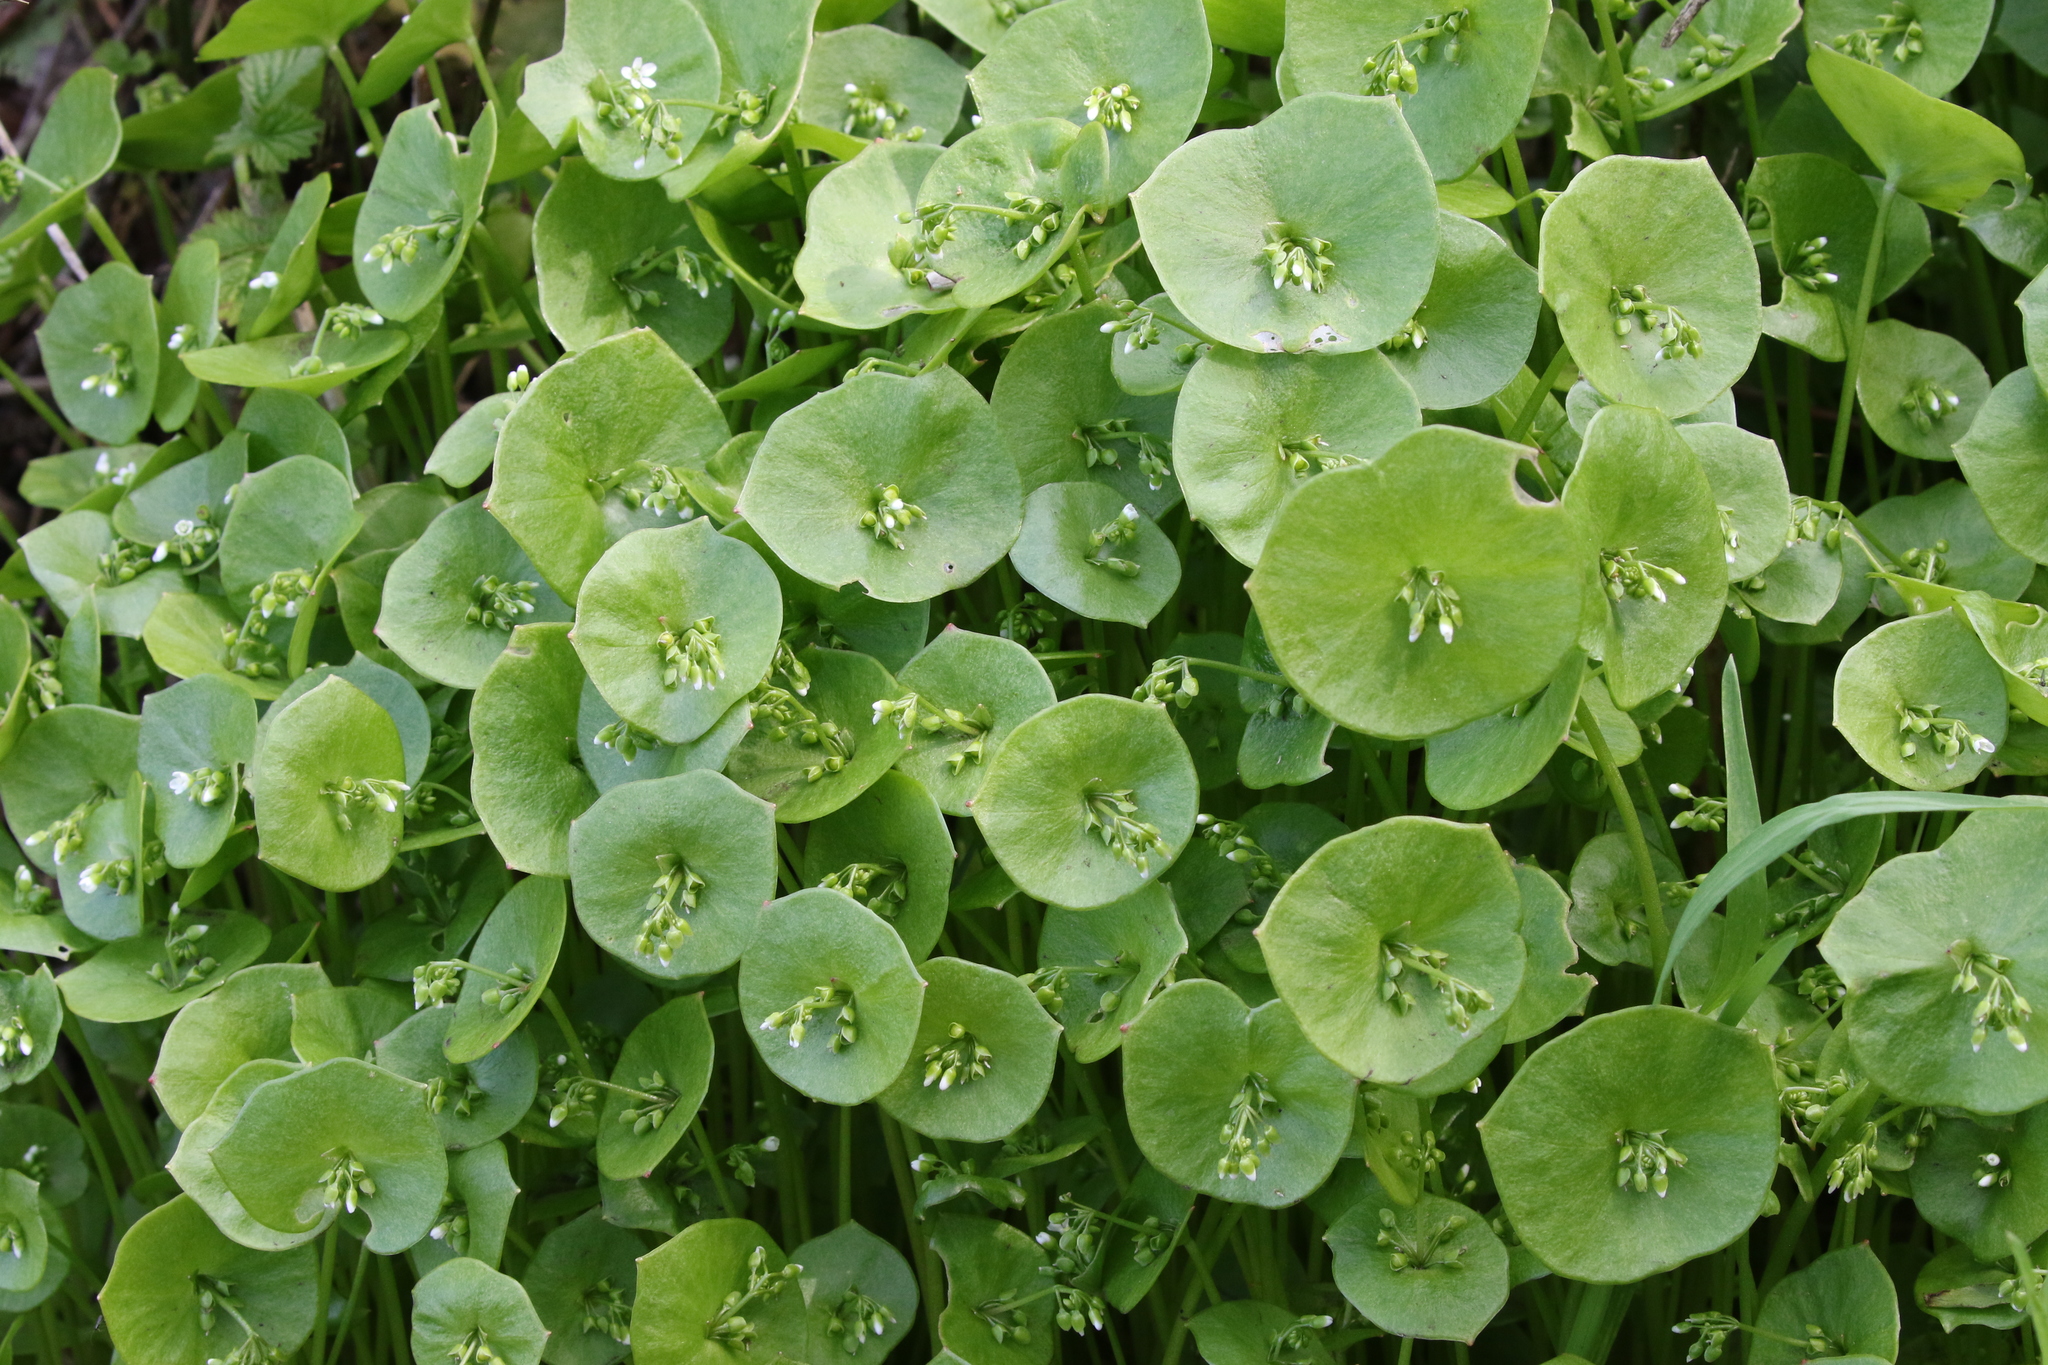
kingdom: Plantae
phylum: Tracheophyta
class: Magnoliopsida
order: Caryophyllales
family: Montiaceae
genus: Claytonia
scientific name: Claytonia perfoliata
